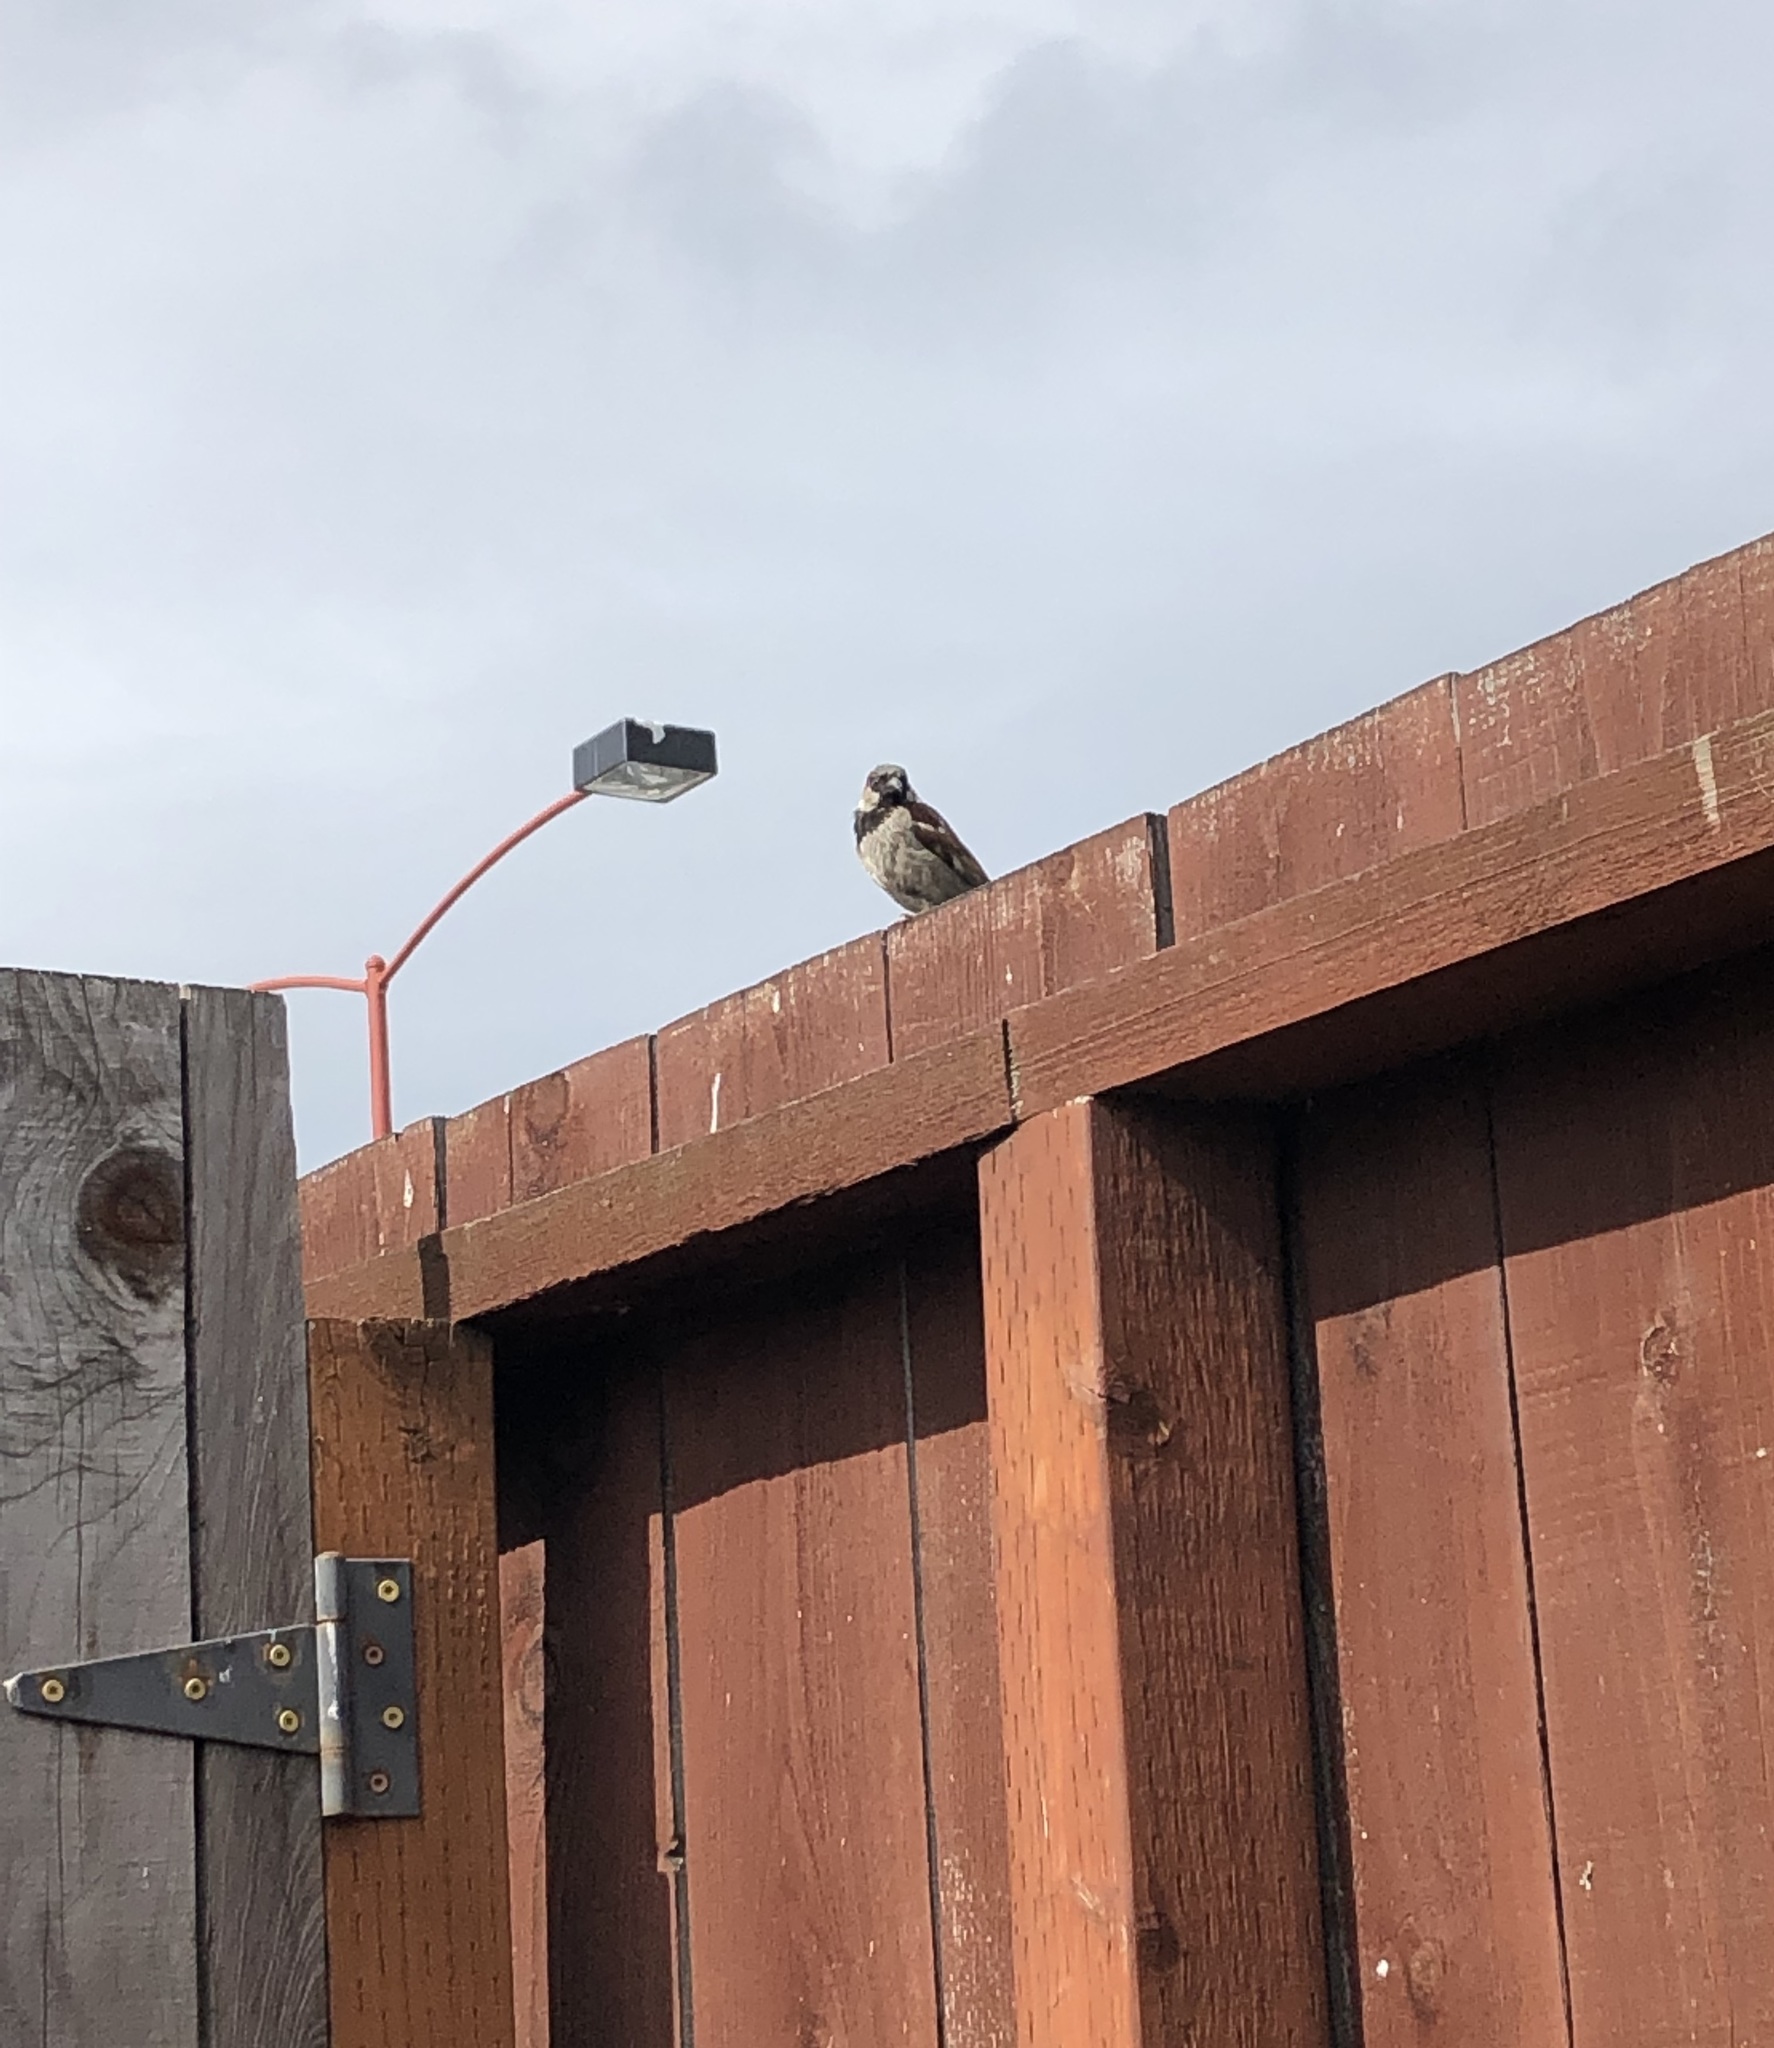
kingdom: Animalia
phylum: Chordata
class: Aves
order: Passeriformes
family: Passeridae
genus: Passer
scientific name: Passer domesticus
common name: House sparrow
